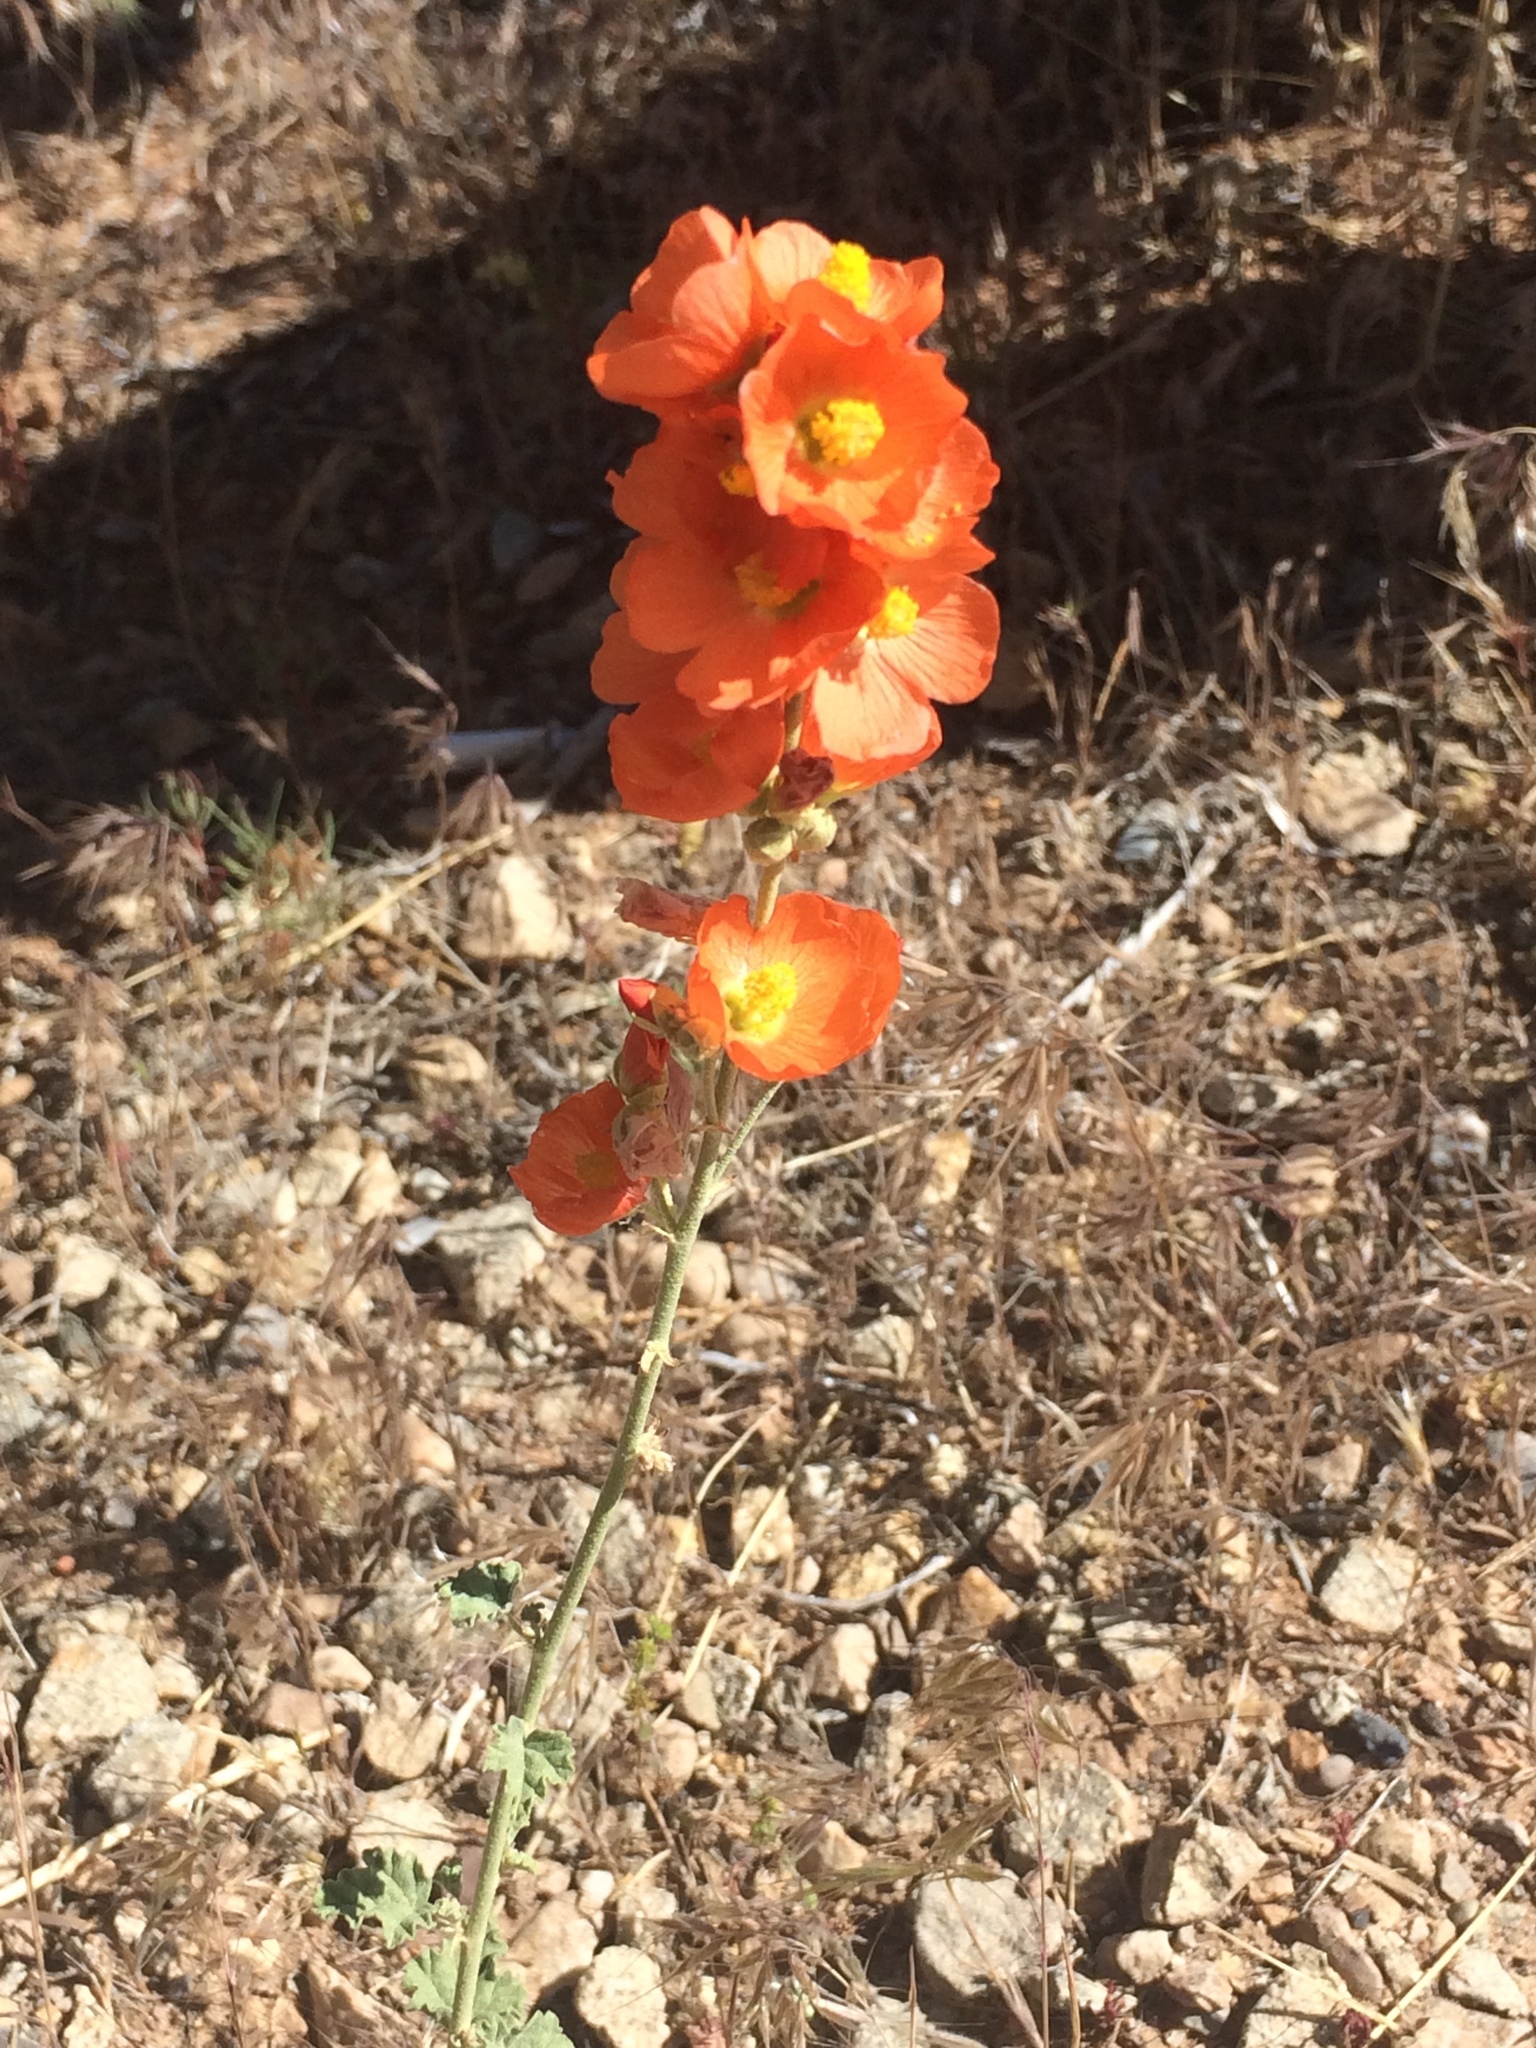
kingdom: Plantae
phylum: Tracheophyta
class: Magnoliopsida
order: Malvales
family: Malvaceae
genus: Sphaeralcea
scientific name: Sphaeralcea coccinea
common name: Moss-rose
